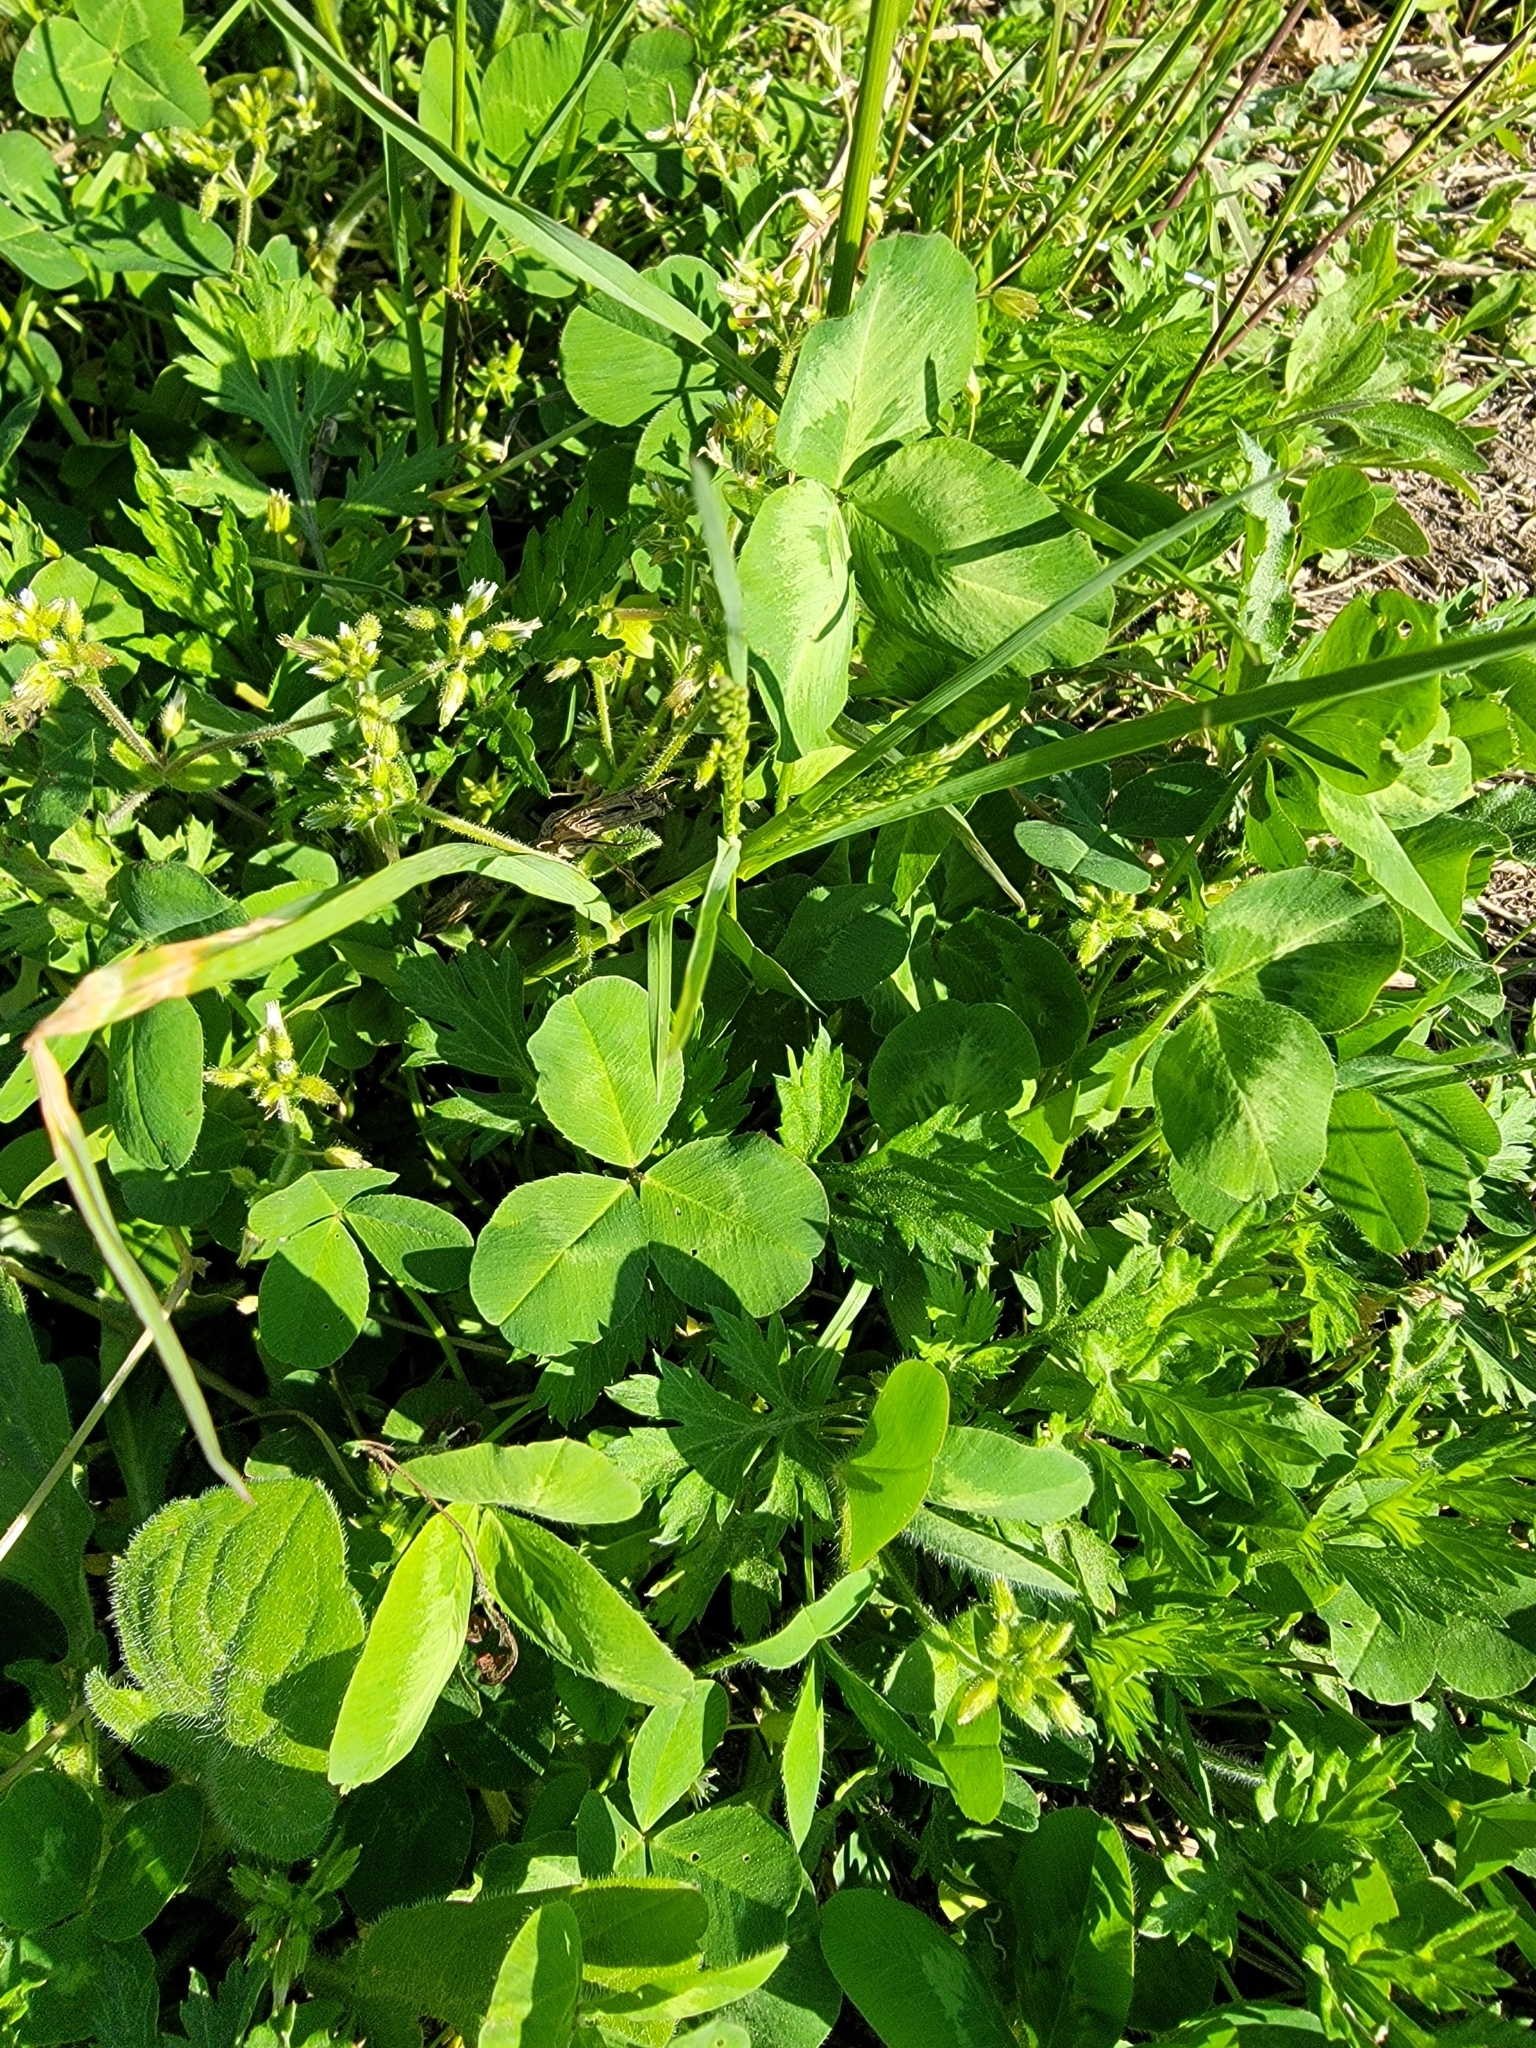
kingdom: Plantae
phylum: Tracheophyta
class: Magnoliopsida
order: Fabales
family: Fabaceae
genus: Trifolium
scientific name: Trifolium repens
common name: White clover
